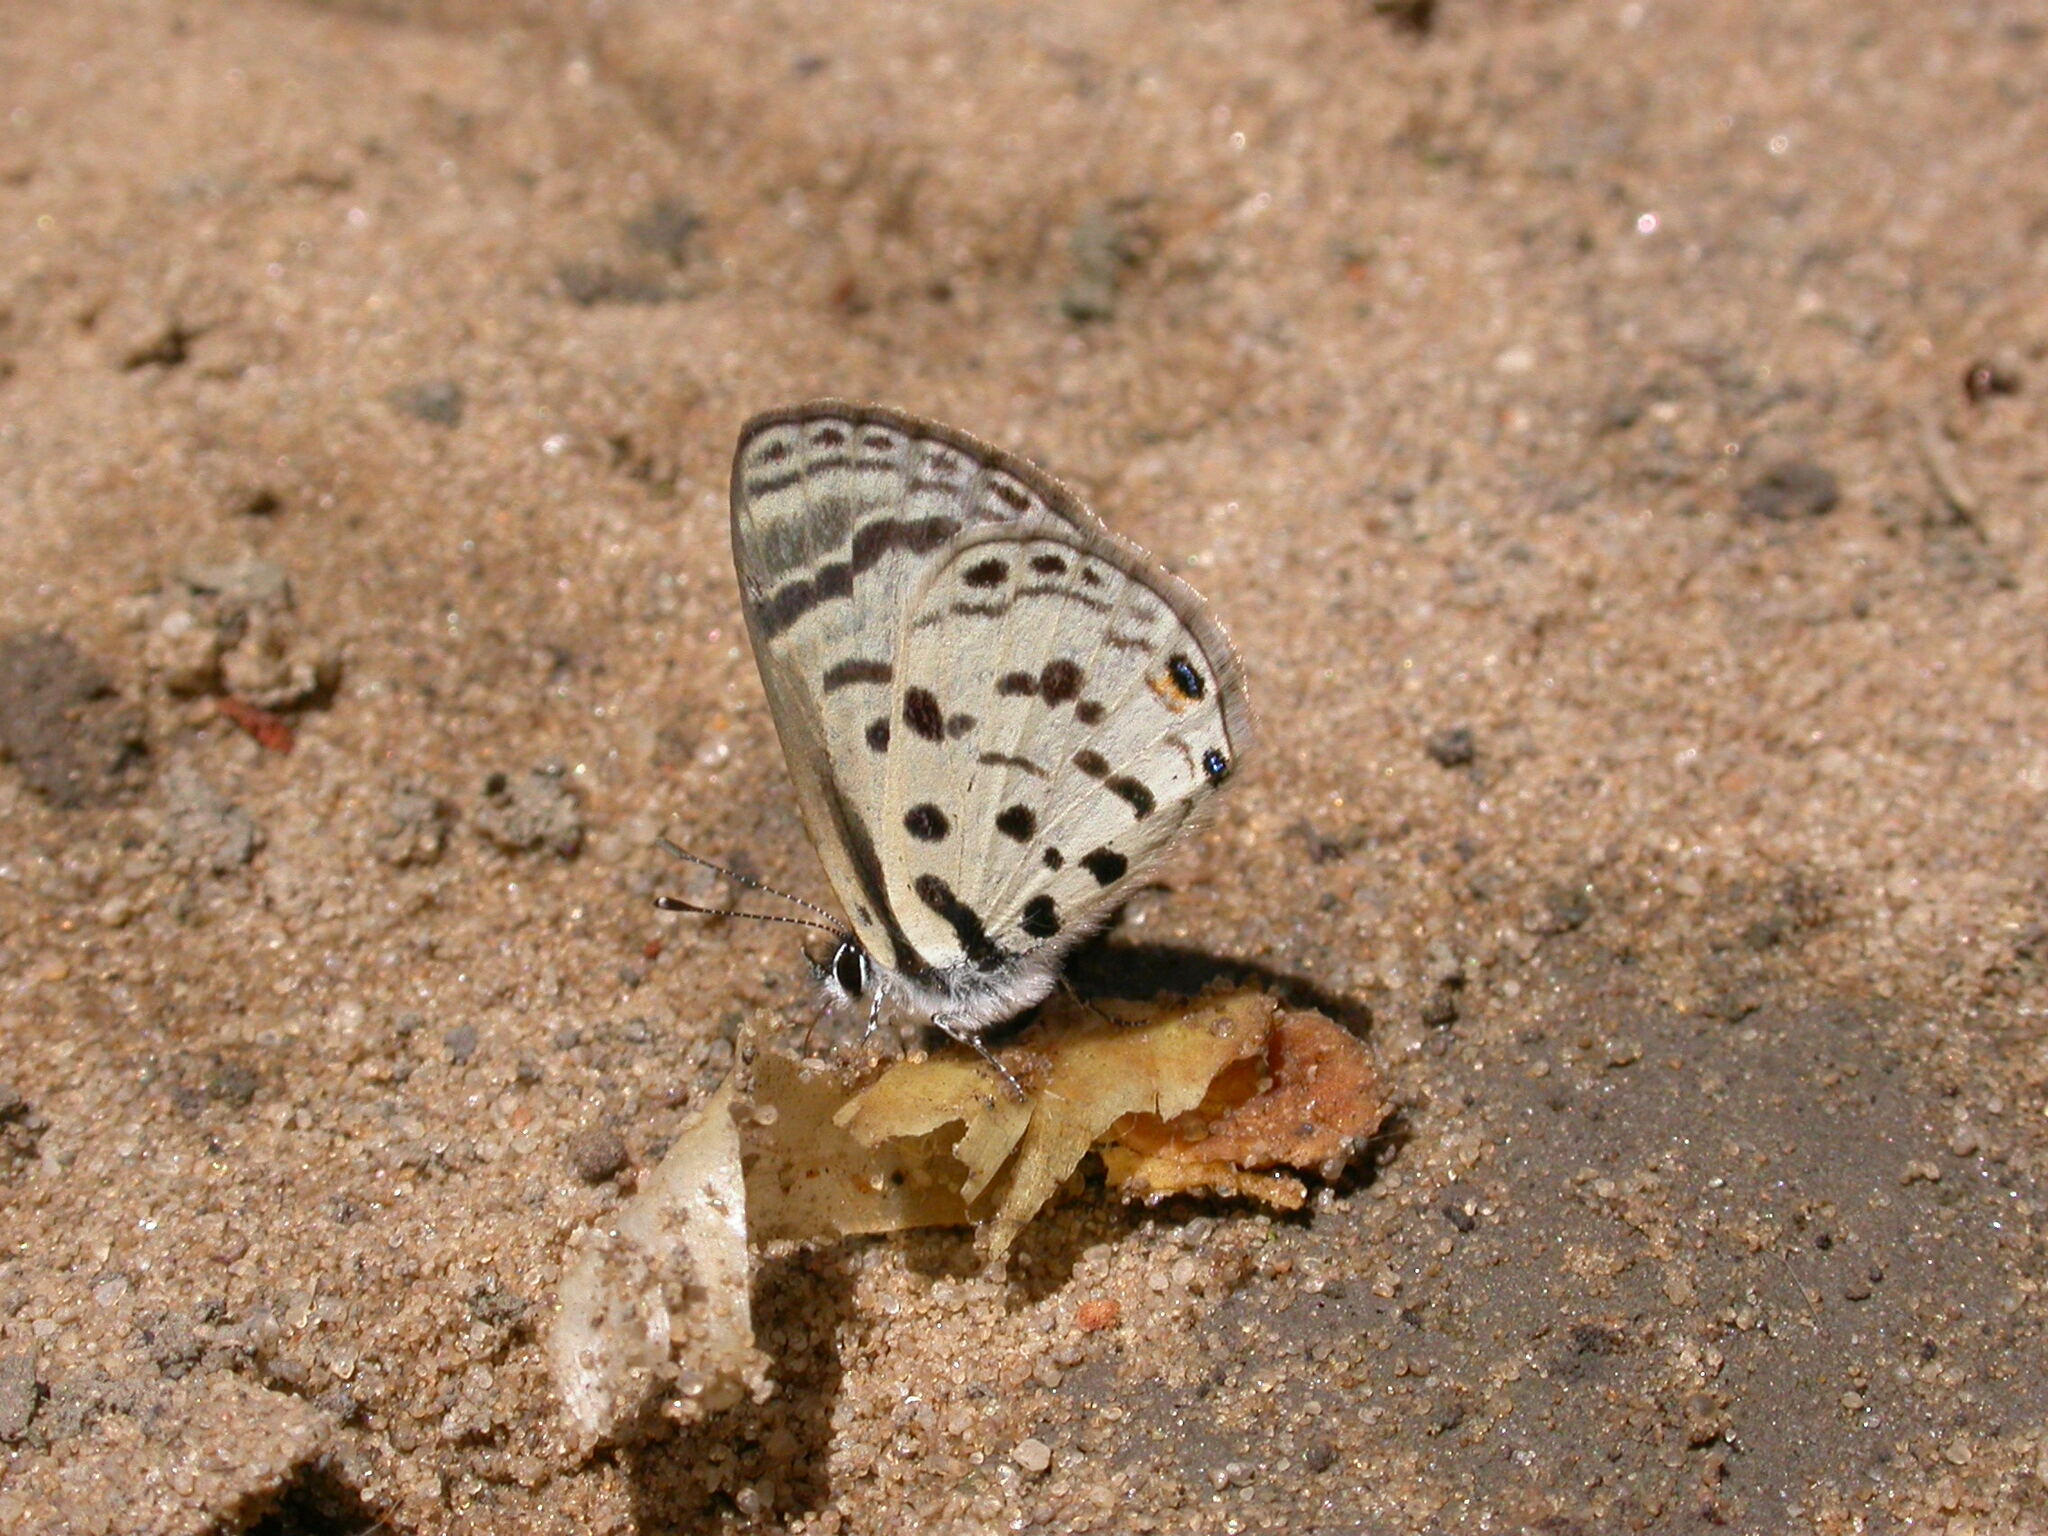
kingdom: Animalia
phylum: Arthropoda
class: Insecta
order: Lepidoptera
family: Lycaenidae
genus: Azanus
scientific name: Azanus mirza
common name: Mirza babul blue
